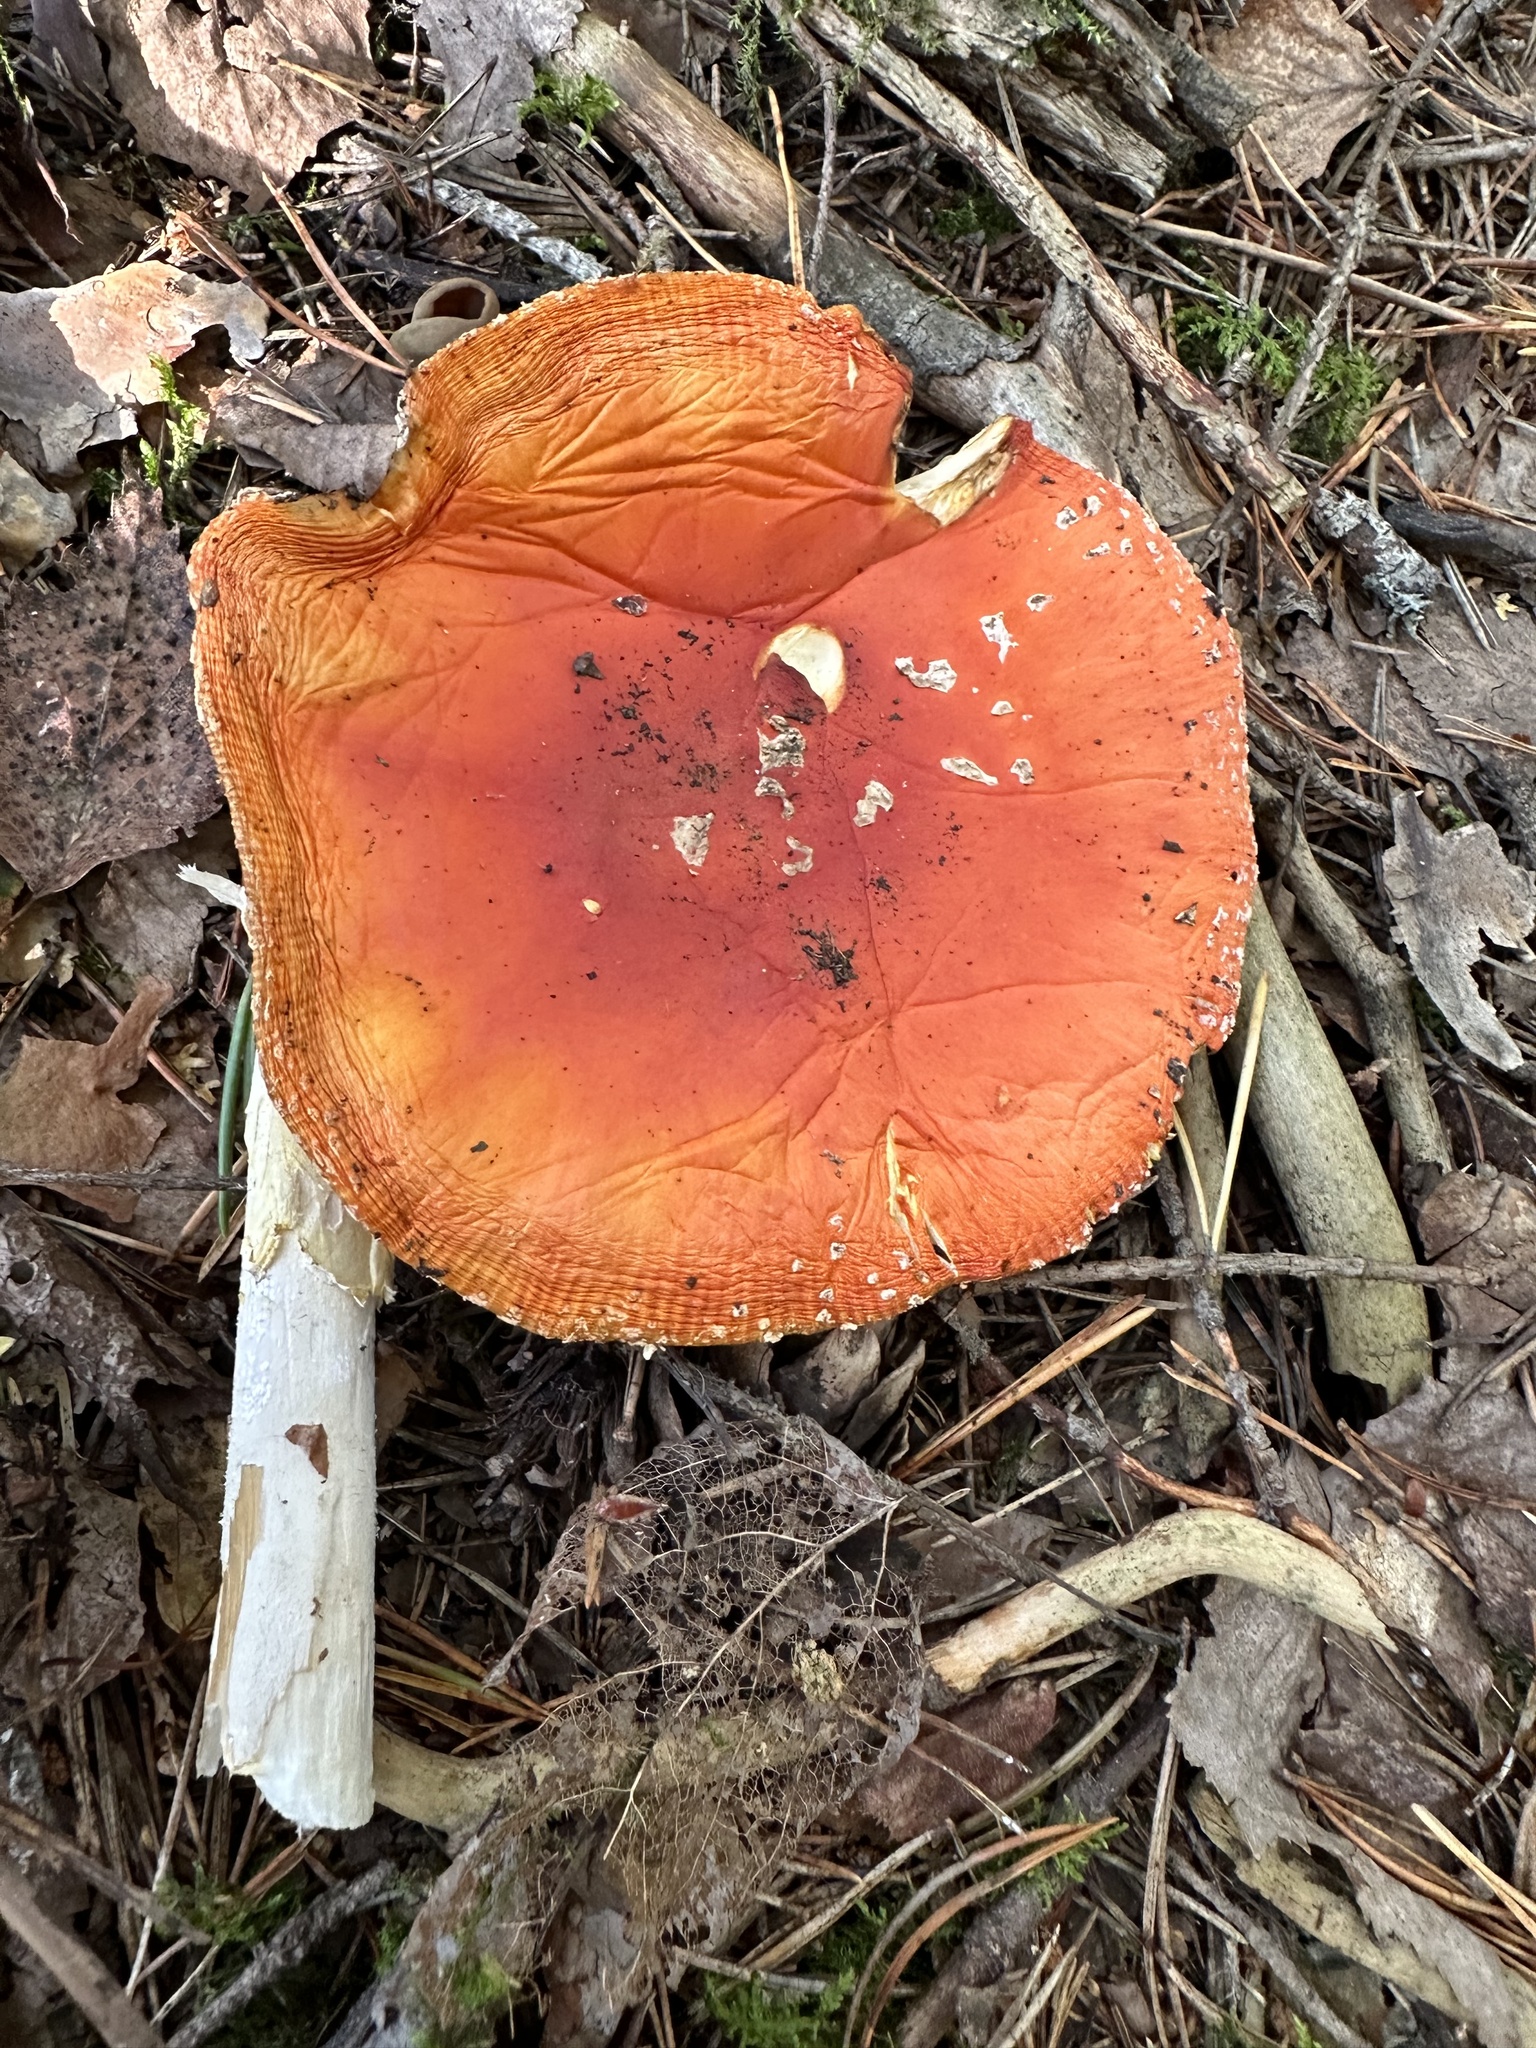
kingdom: Fungi
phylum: Basidiomycota
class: Agaricomycetes
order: Agaricales
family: Amanitaceae
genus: Amanita
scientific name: Amanita muscaria
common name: Fly agaric
